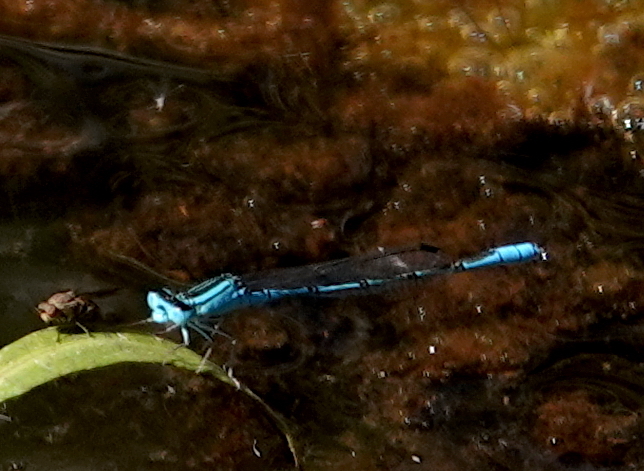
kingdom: Animalia
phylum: Arthropoda
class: Insecta
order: Odonata
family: Coenagrionidae
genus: Africallagma
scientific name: Africallagma glaucum
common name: Swamp bluet
